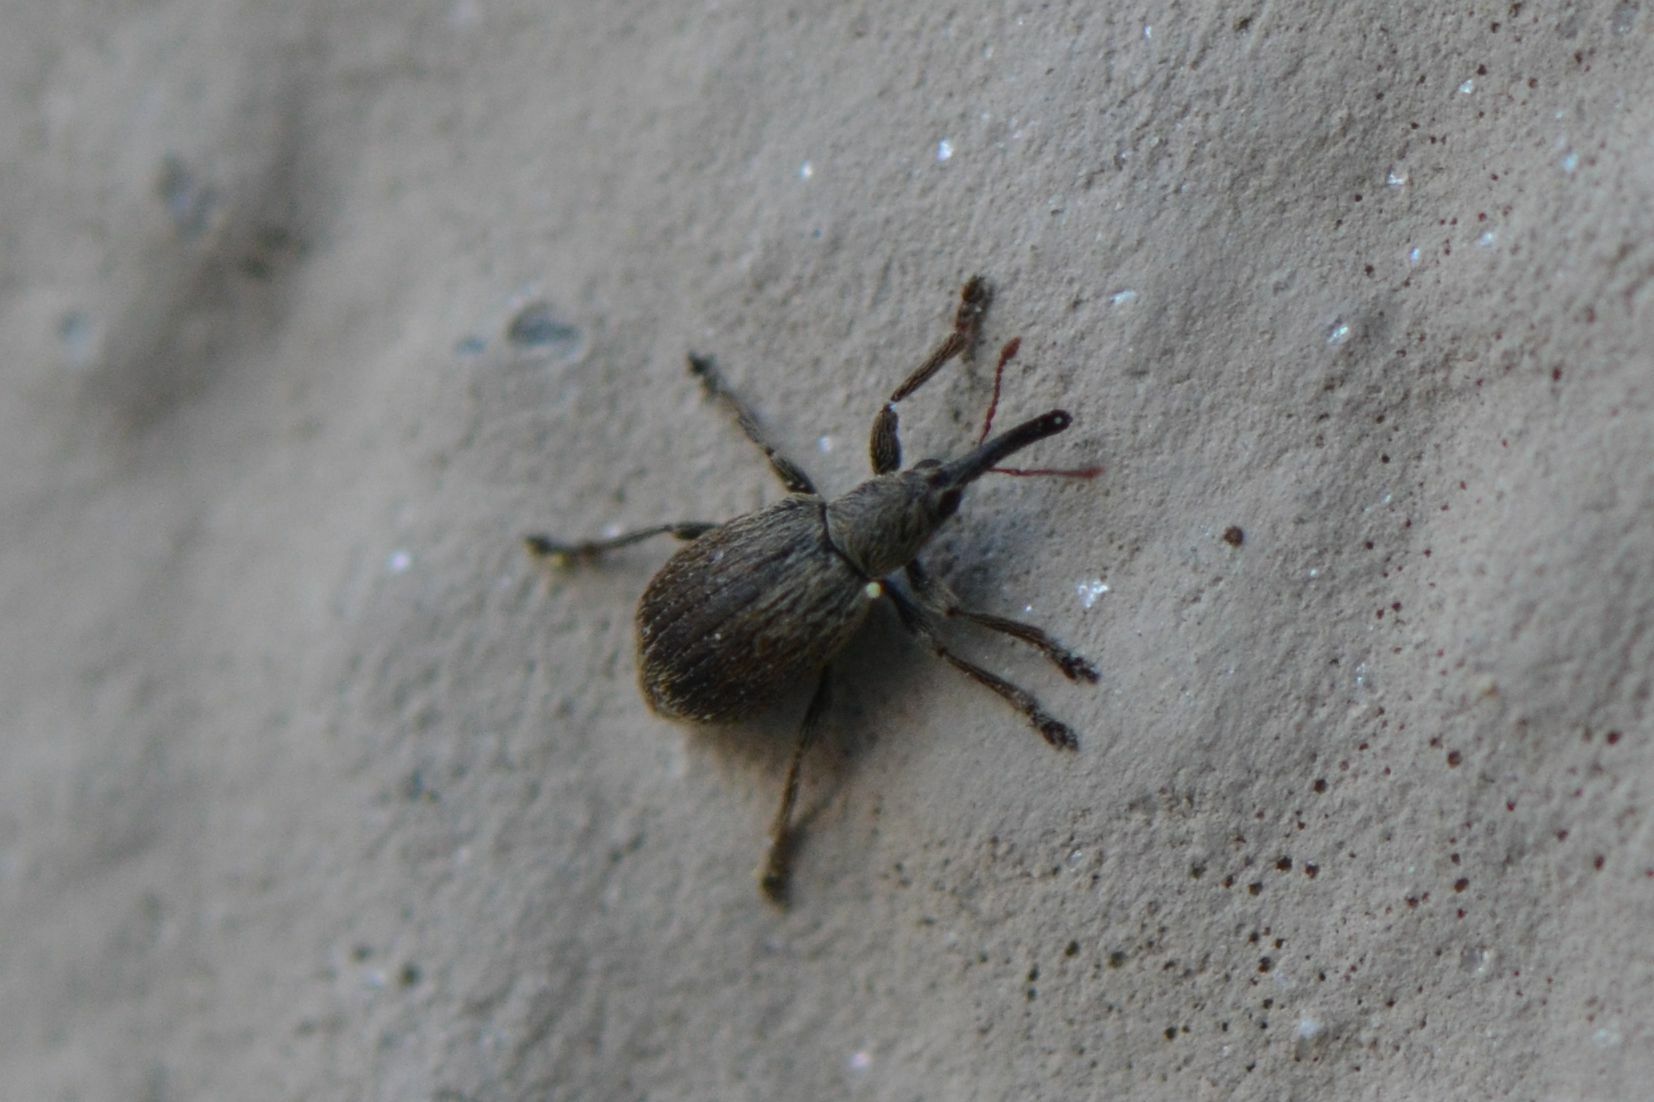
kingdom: Animalia
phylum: Arthropoda
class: Insecta
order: Coleoptera
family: Apionidae
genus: Trichopterapion
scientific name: Trichopterapion holosericeum
